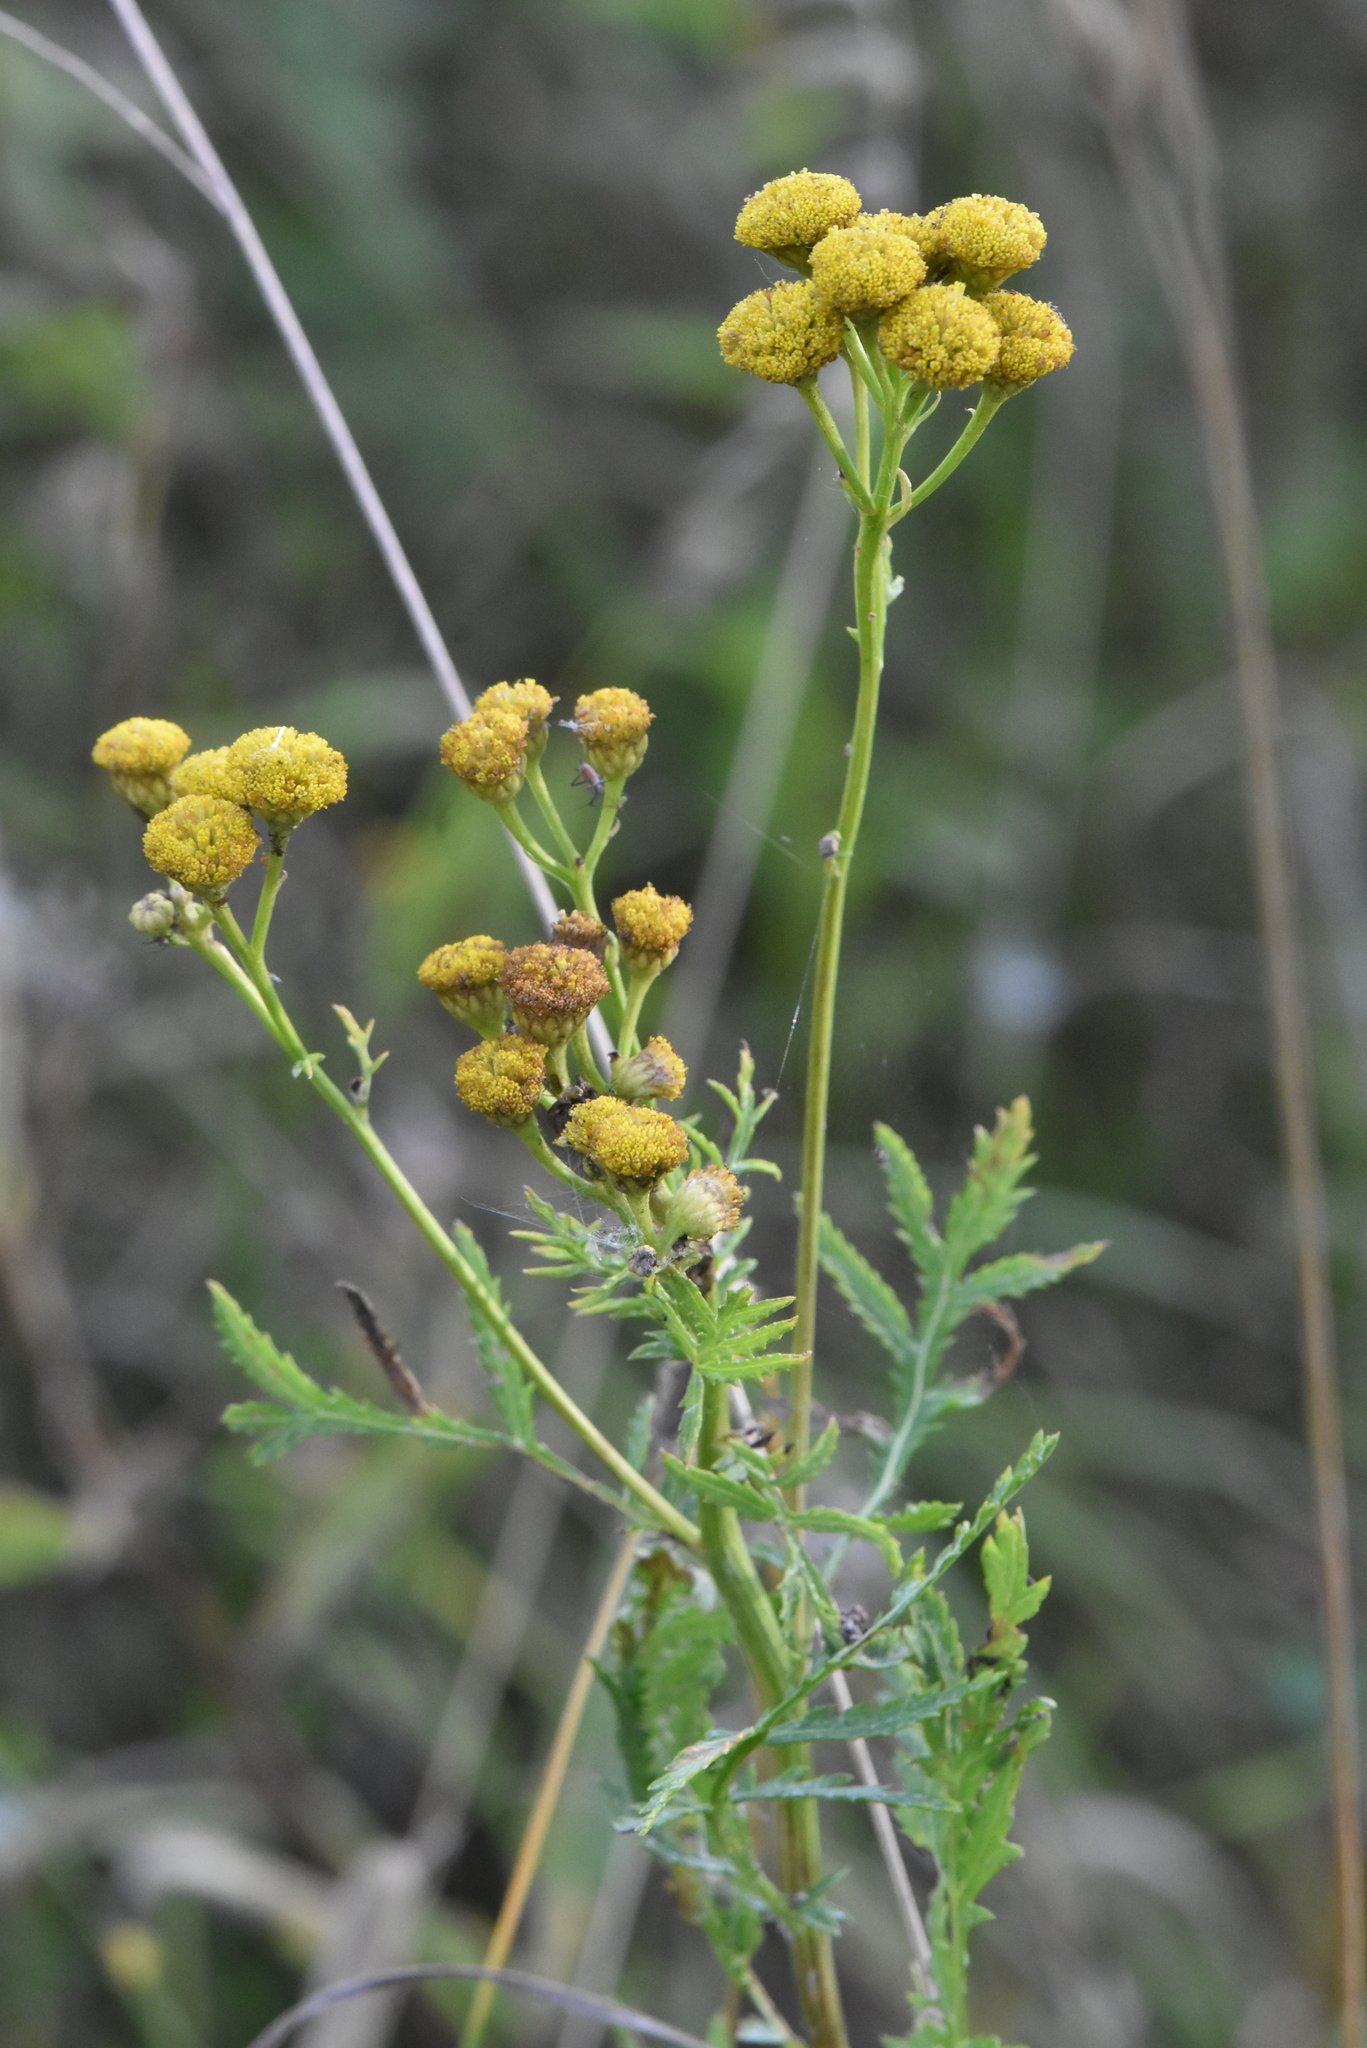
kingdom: Plantae
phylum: Tracheophyta
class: Magnoliopsida
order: Asterales
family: Asteraceae
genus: Tanacetum
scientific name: Tanacetum vulgare
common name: Common tansy
